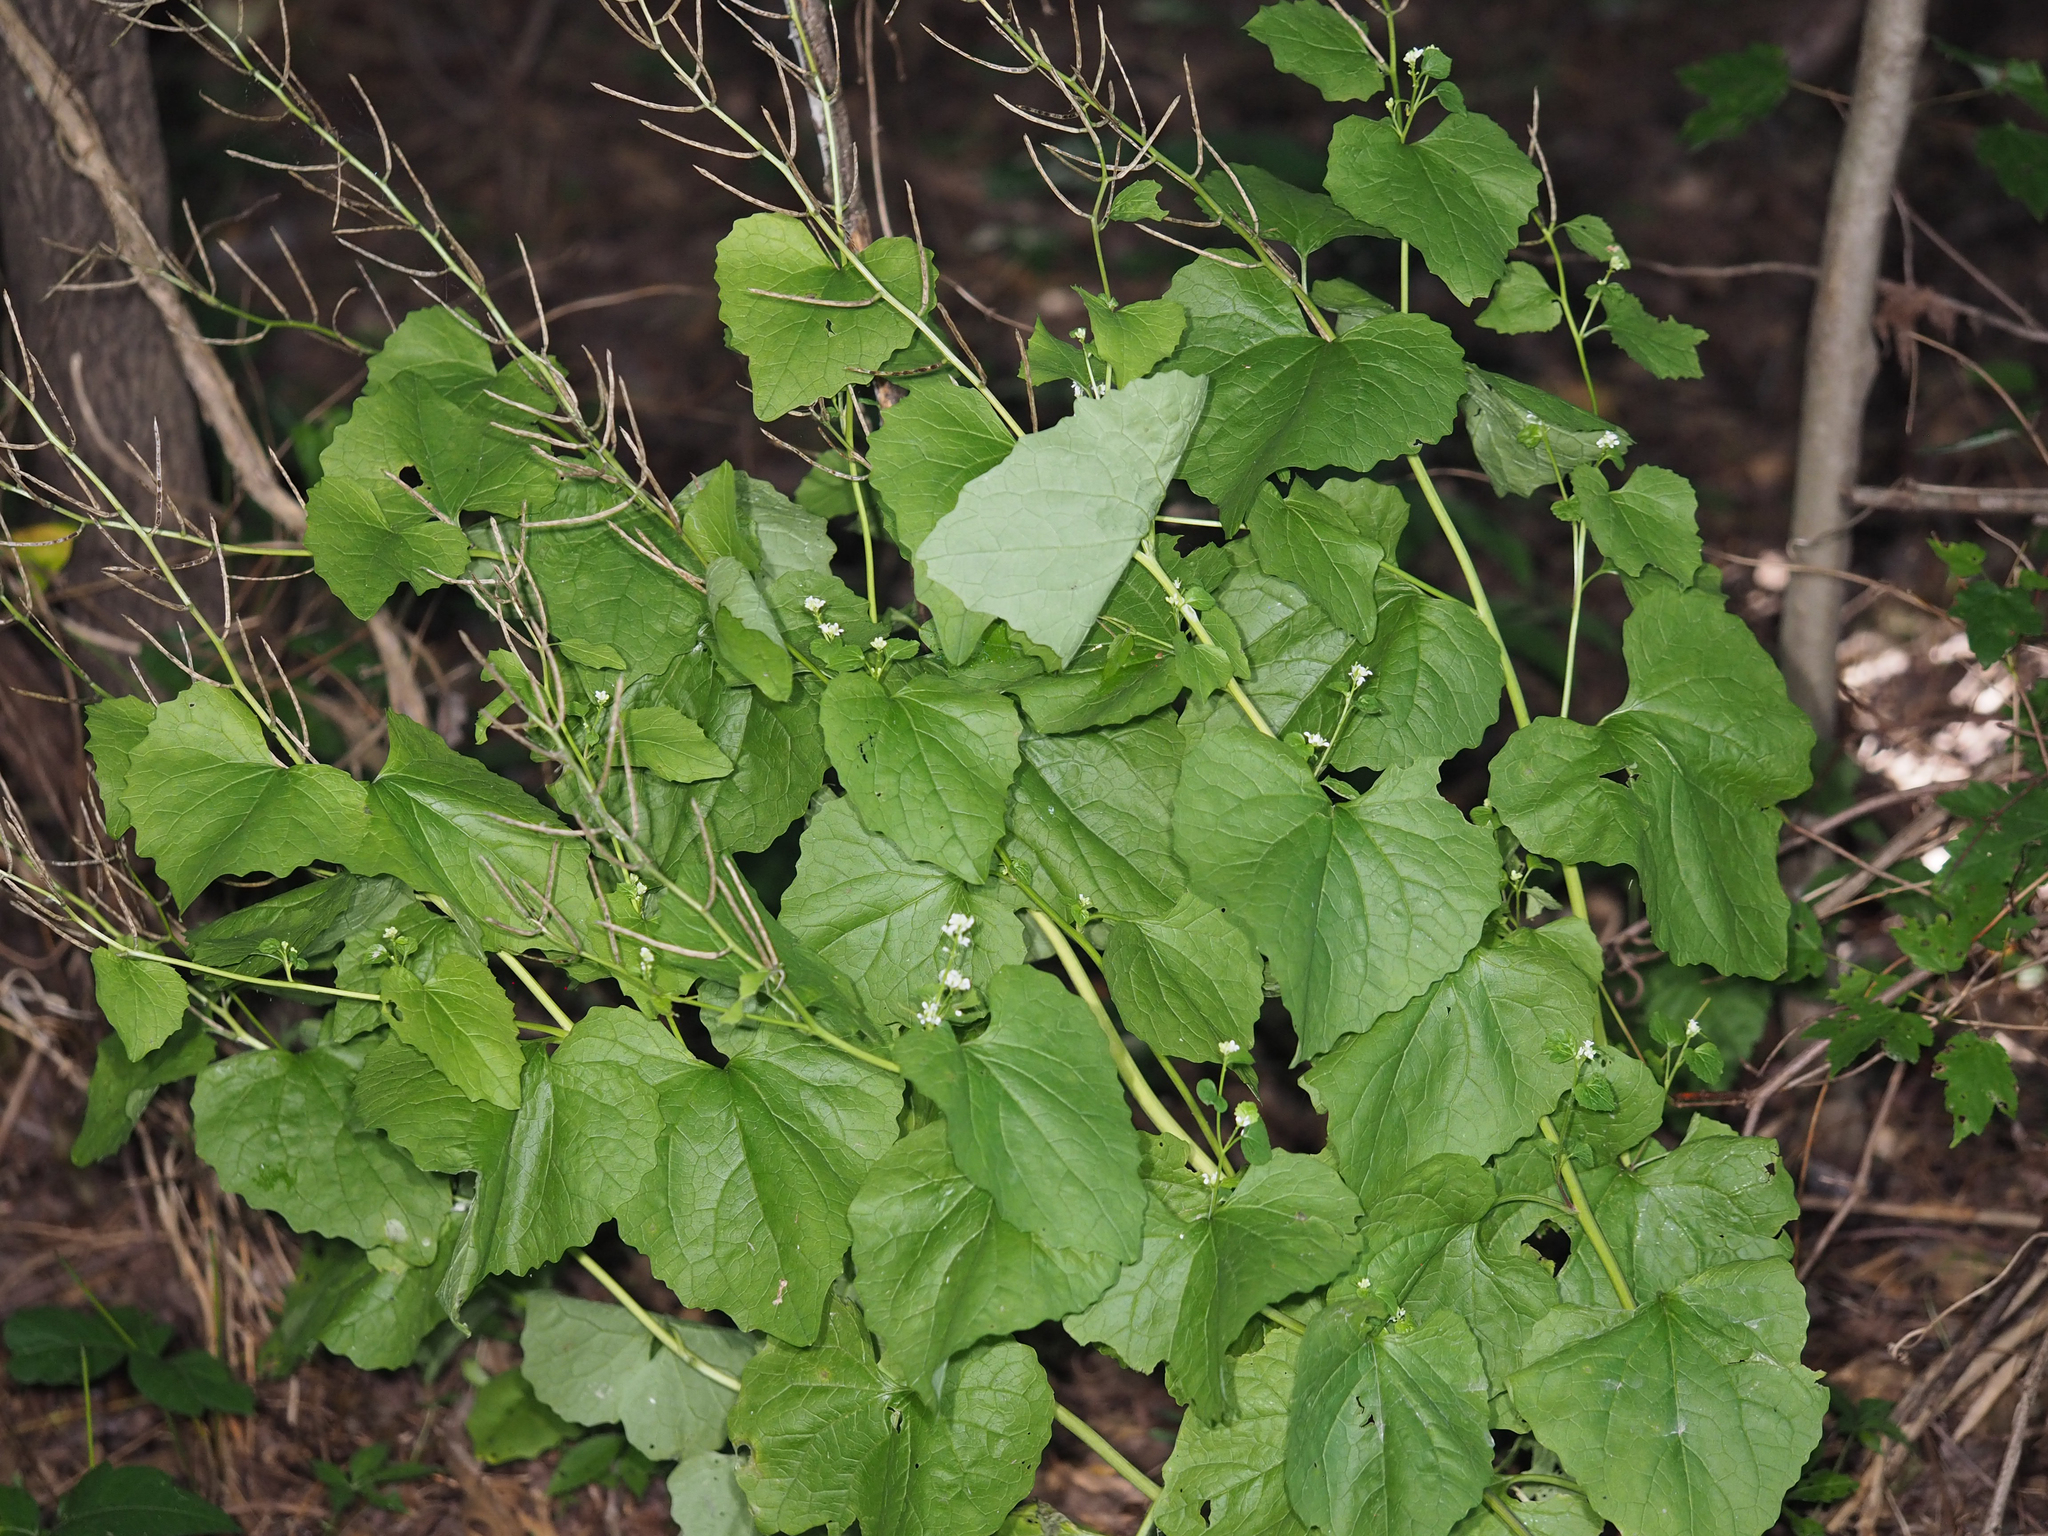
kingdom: Plantae
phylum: Tracheophyta
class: Magnoliopsida
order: Brassicales
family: Brassicaceae
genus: Alliaria
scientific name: Alliaria petiolata
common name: Garlic mustard
